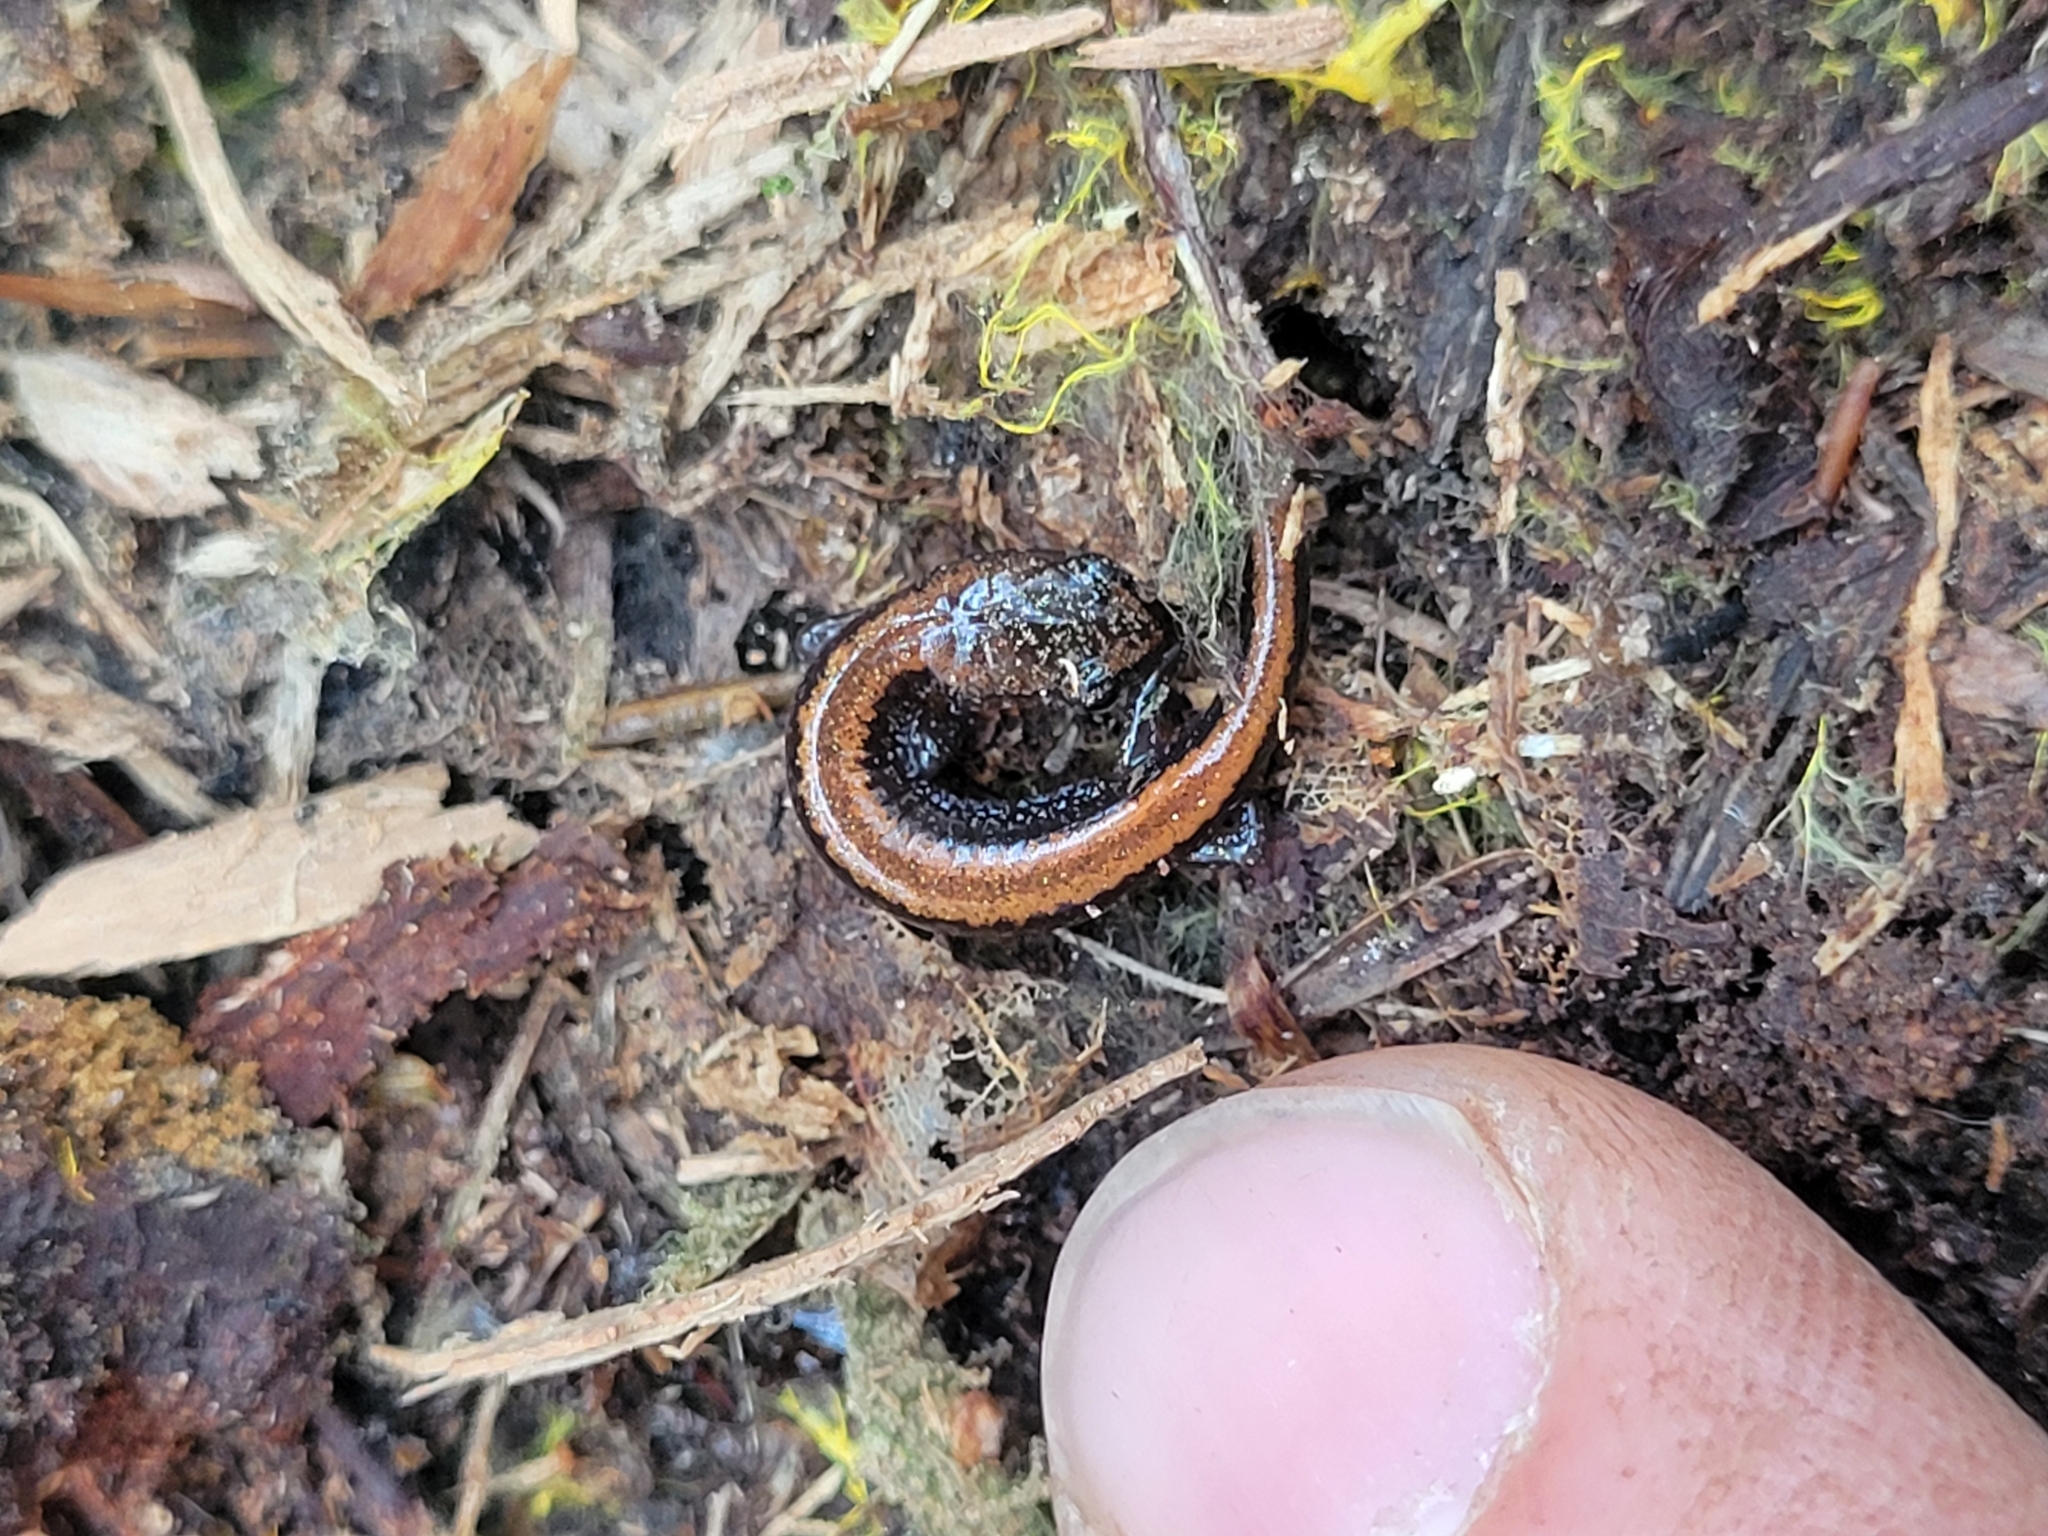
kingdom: Animalia
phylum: Chordata
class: Amphibia
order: Caudata
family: Plethodontidae
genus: Plethodon
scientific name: Plethodon cinereus
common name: Redback salamander
